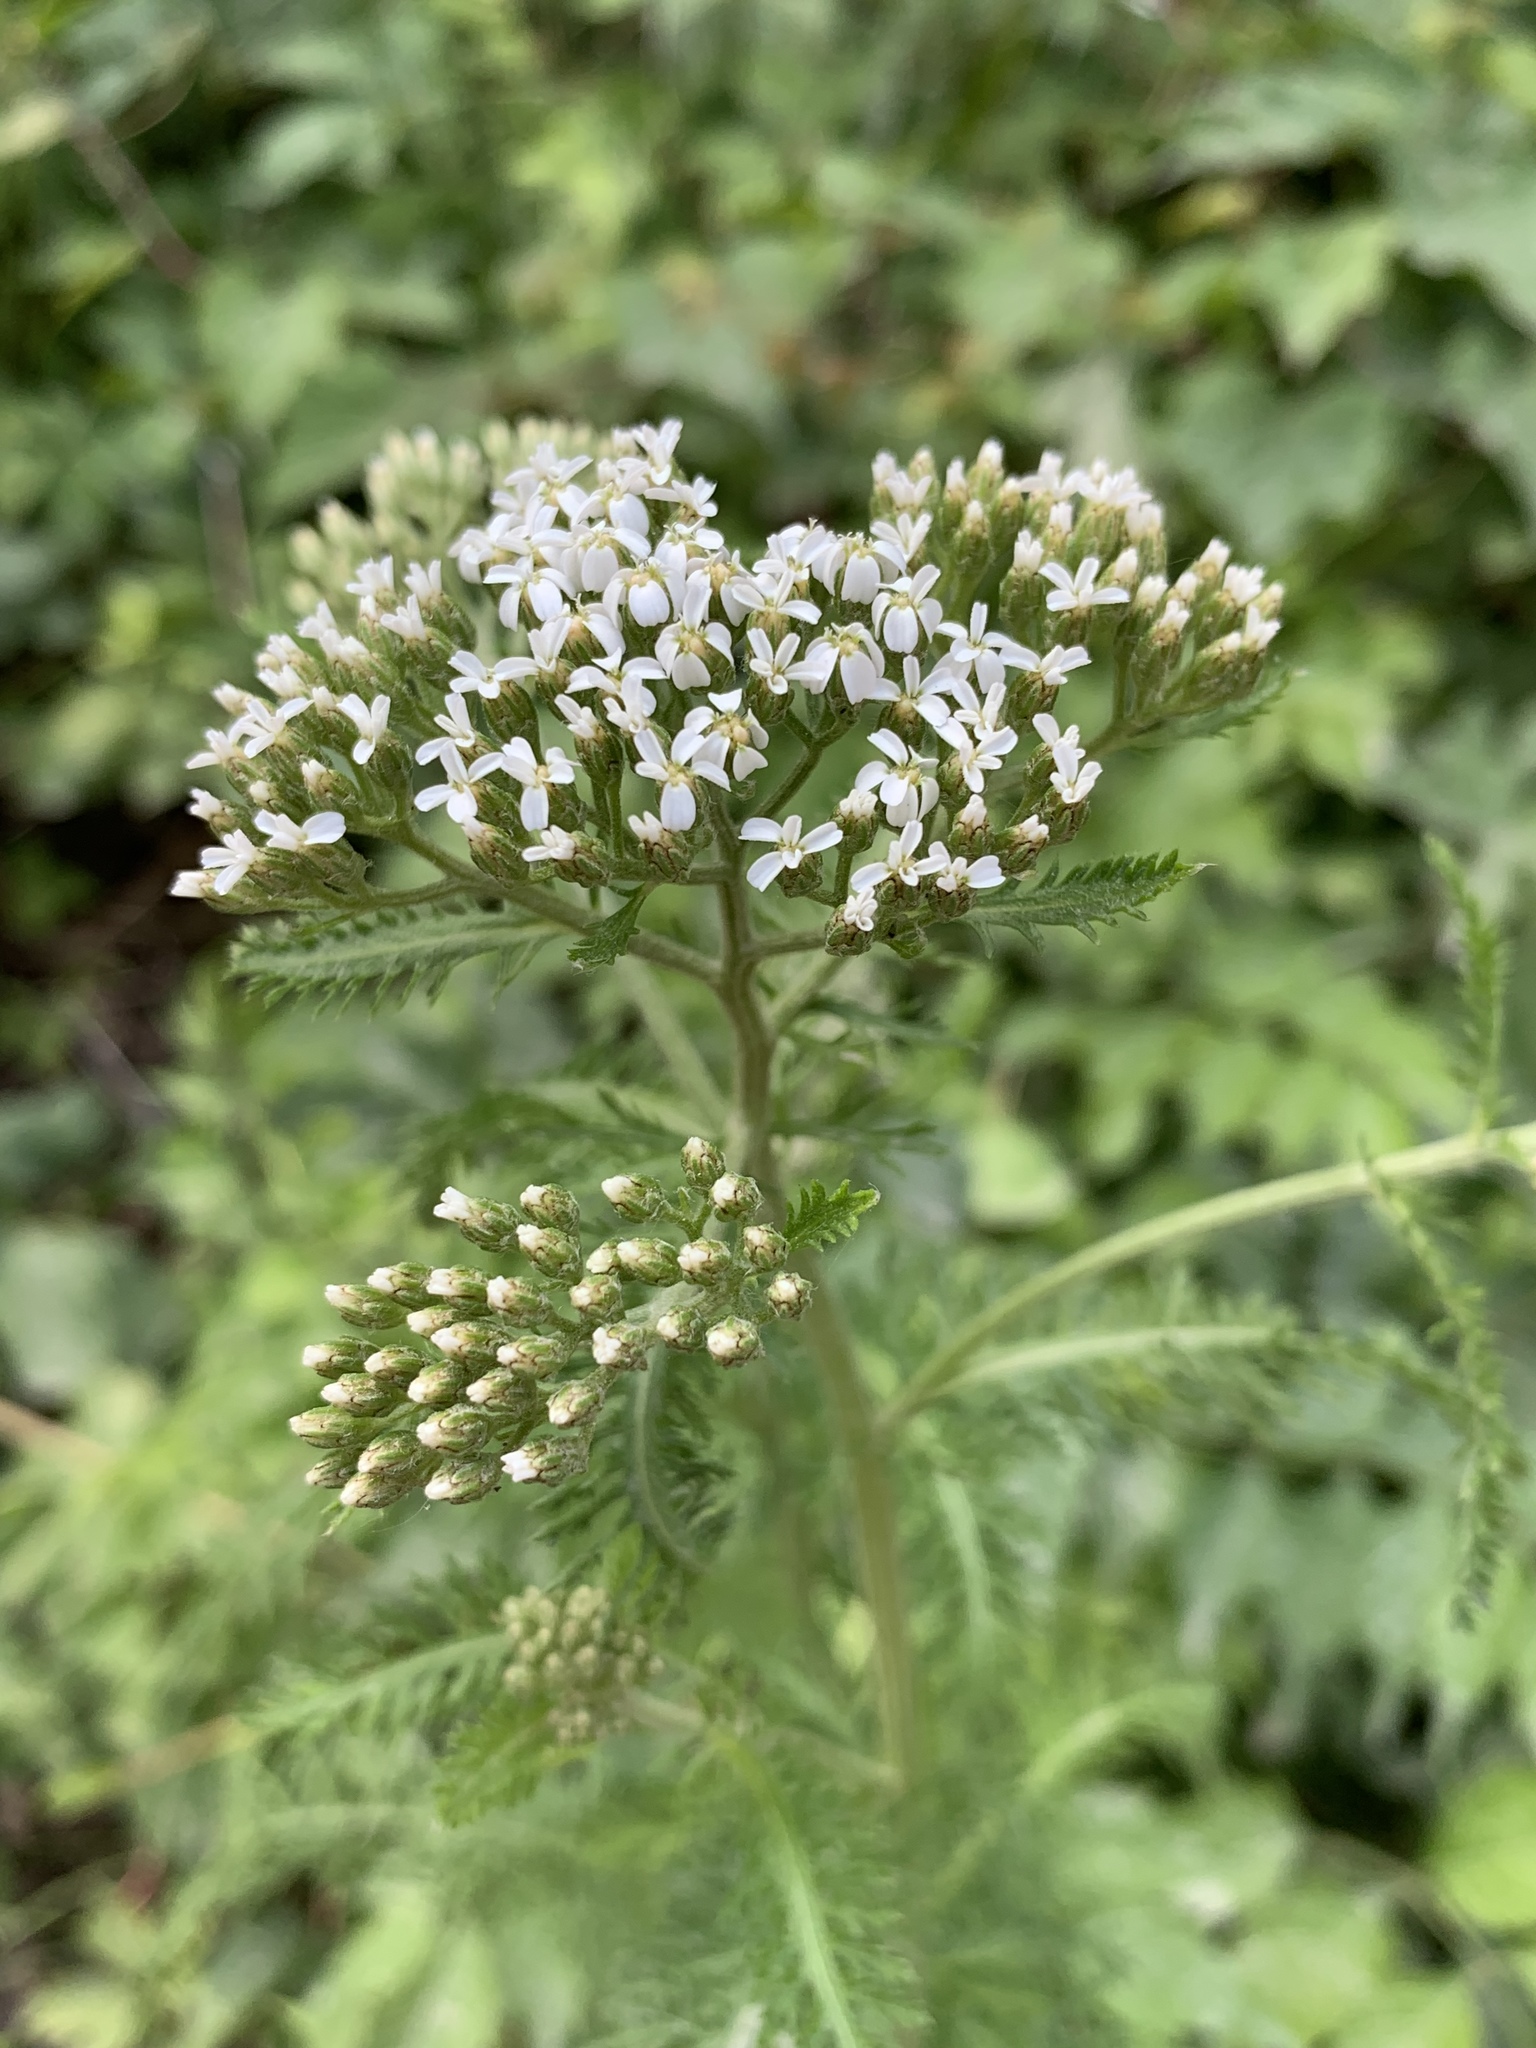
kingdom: Plantae
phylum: Tracheophyta
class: Magnoliopsida
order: Asterales
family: Asteraceae
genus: Achillea
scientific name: Achillea millefolium
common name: Yarrow
